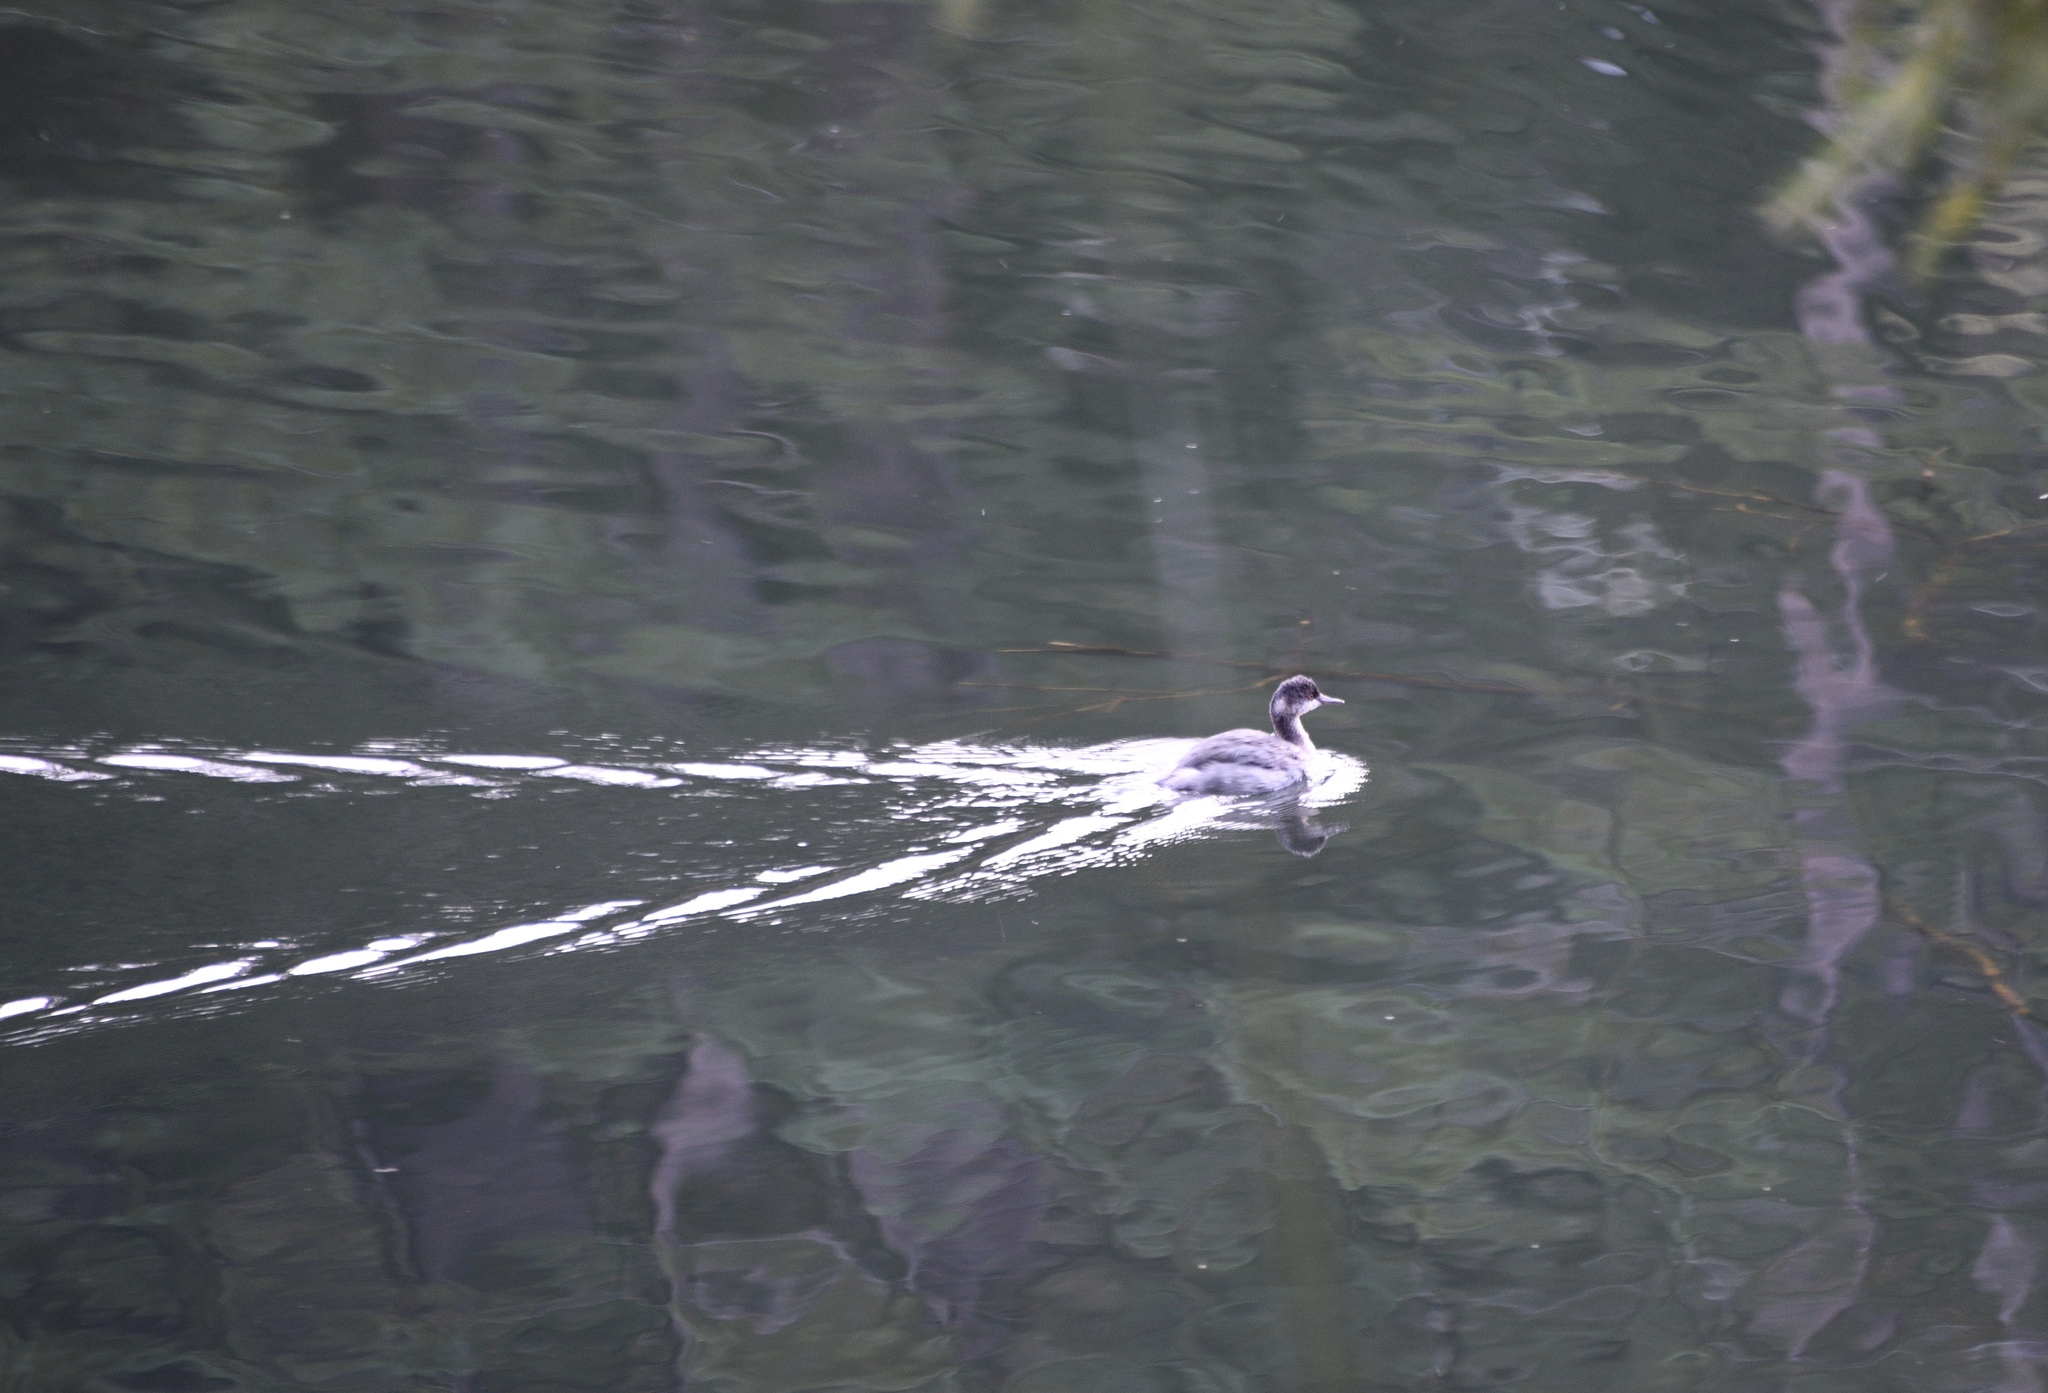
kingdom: Animalia
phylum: Chordata
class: Aves
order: Podicipediformes
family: Podicipedidae
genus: Podiceps
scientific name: Podiceps nigricollis
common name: Black-necked grebe
